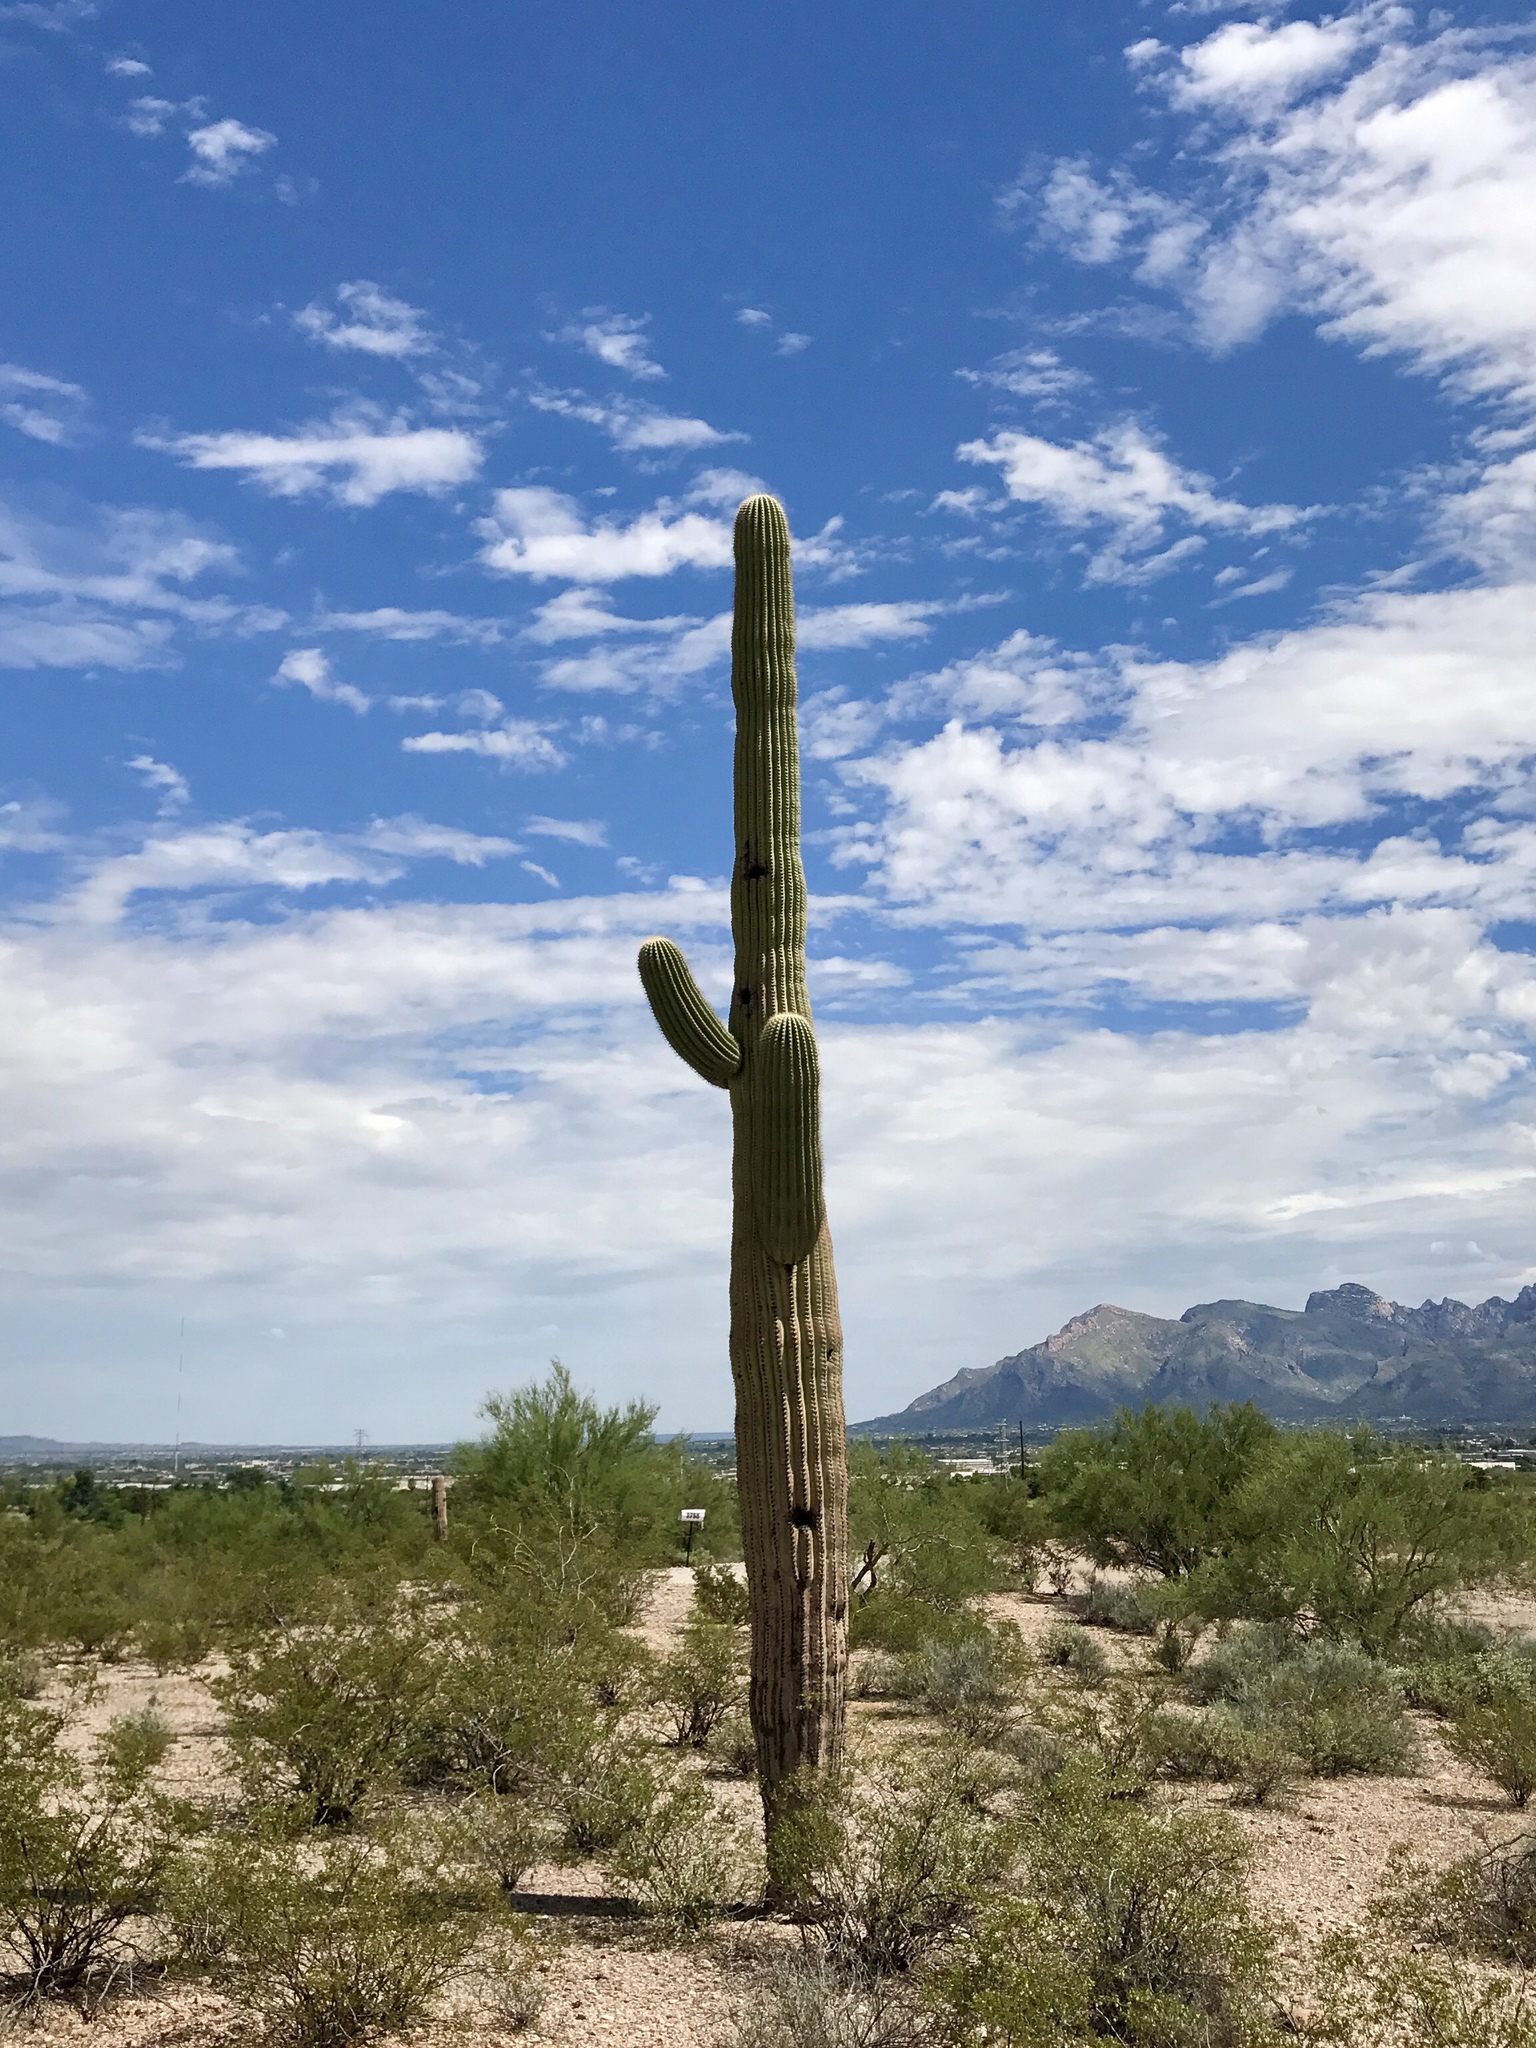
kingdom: Plantae
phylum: Tracheophyta
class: Magnoliopsida
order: Caryophyllales
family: Cactaceae
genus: Carnegiea
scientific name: Carnegiea gigantea
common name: Saguaro
